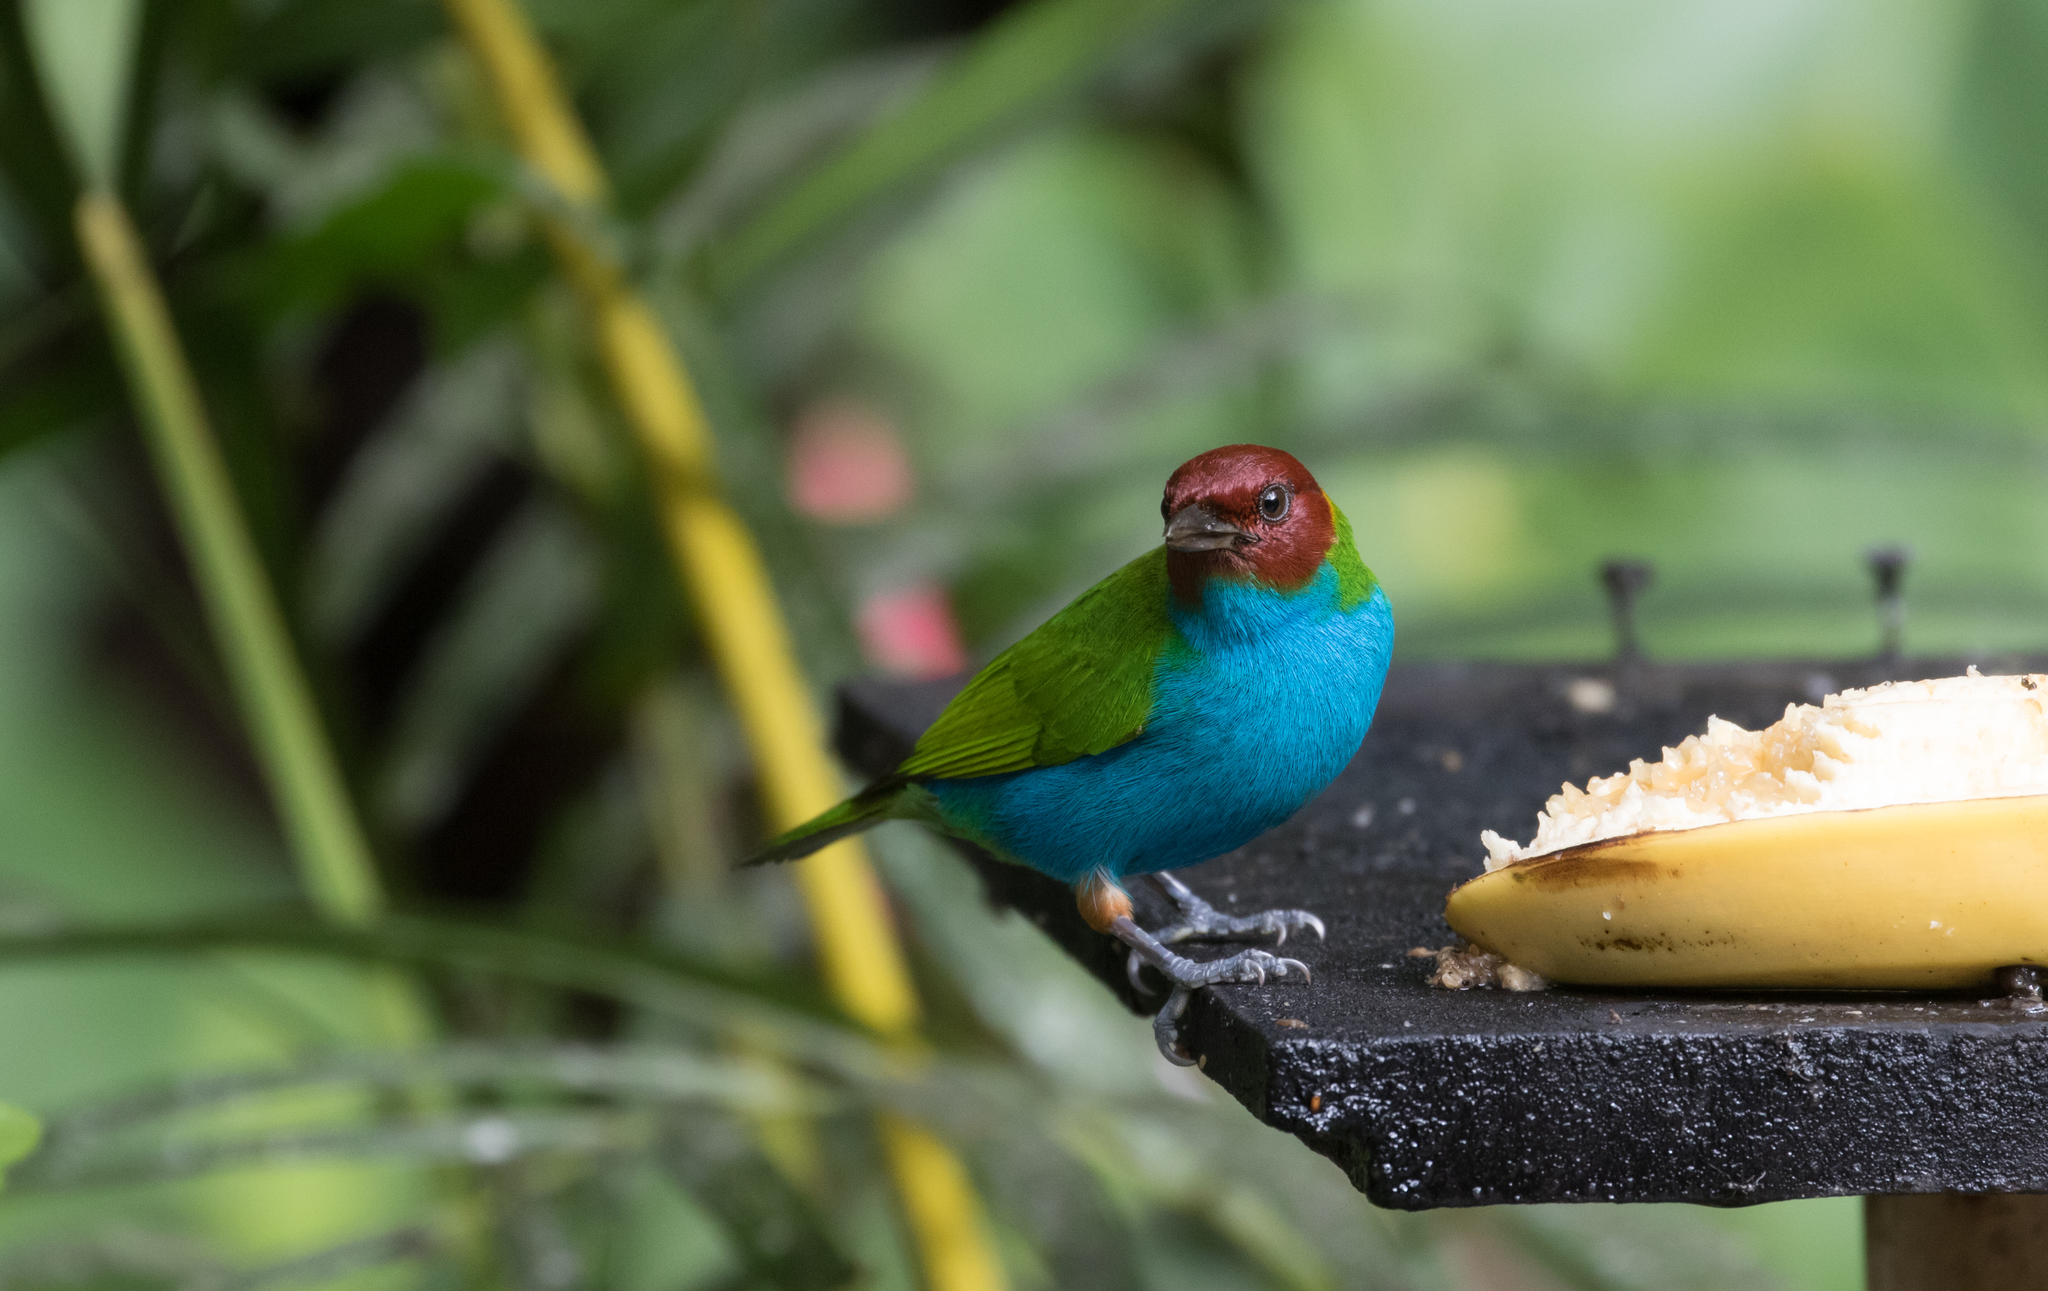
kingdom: Animalia
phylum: Chordata
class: Aves
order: Passeriformes
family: Thraupidae
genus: Tangara
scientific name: Tangara gyrola
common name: Bay-headed tanager
